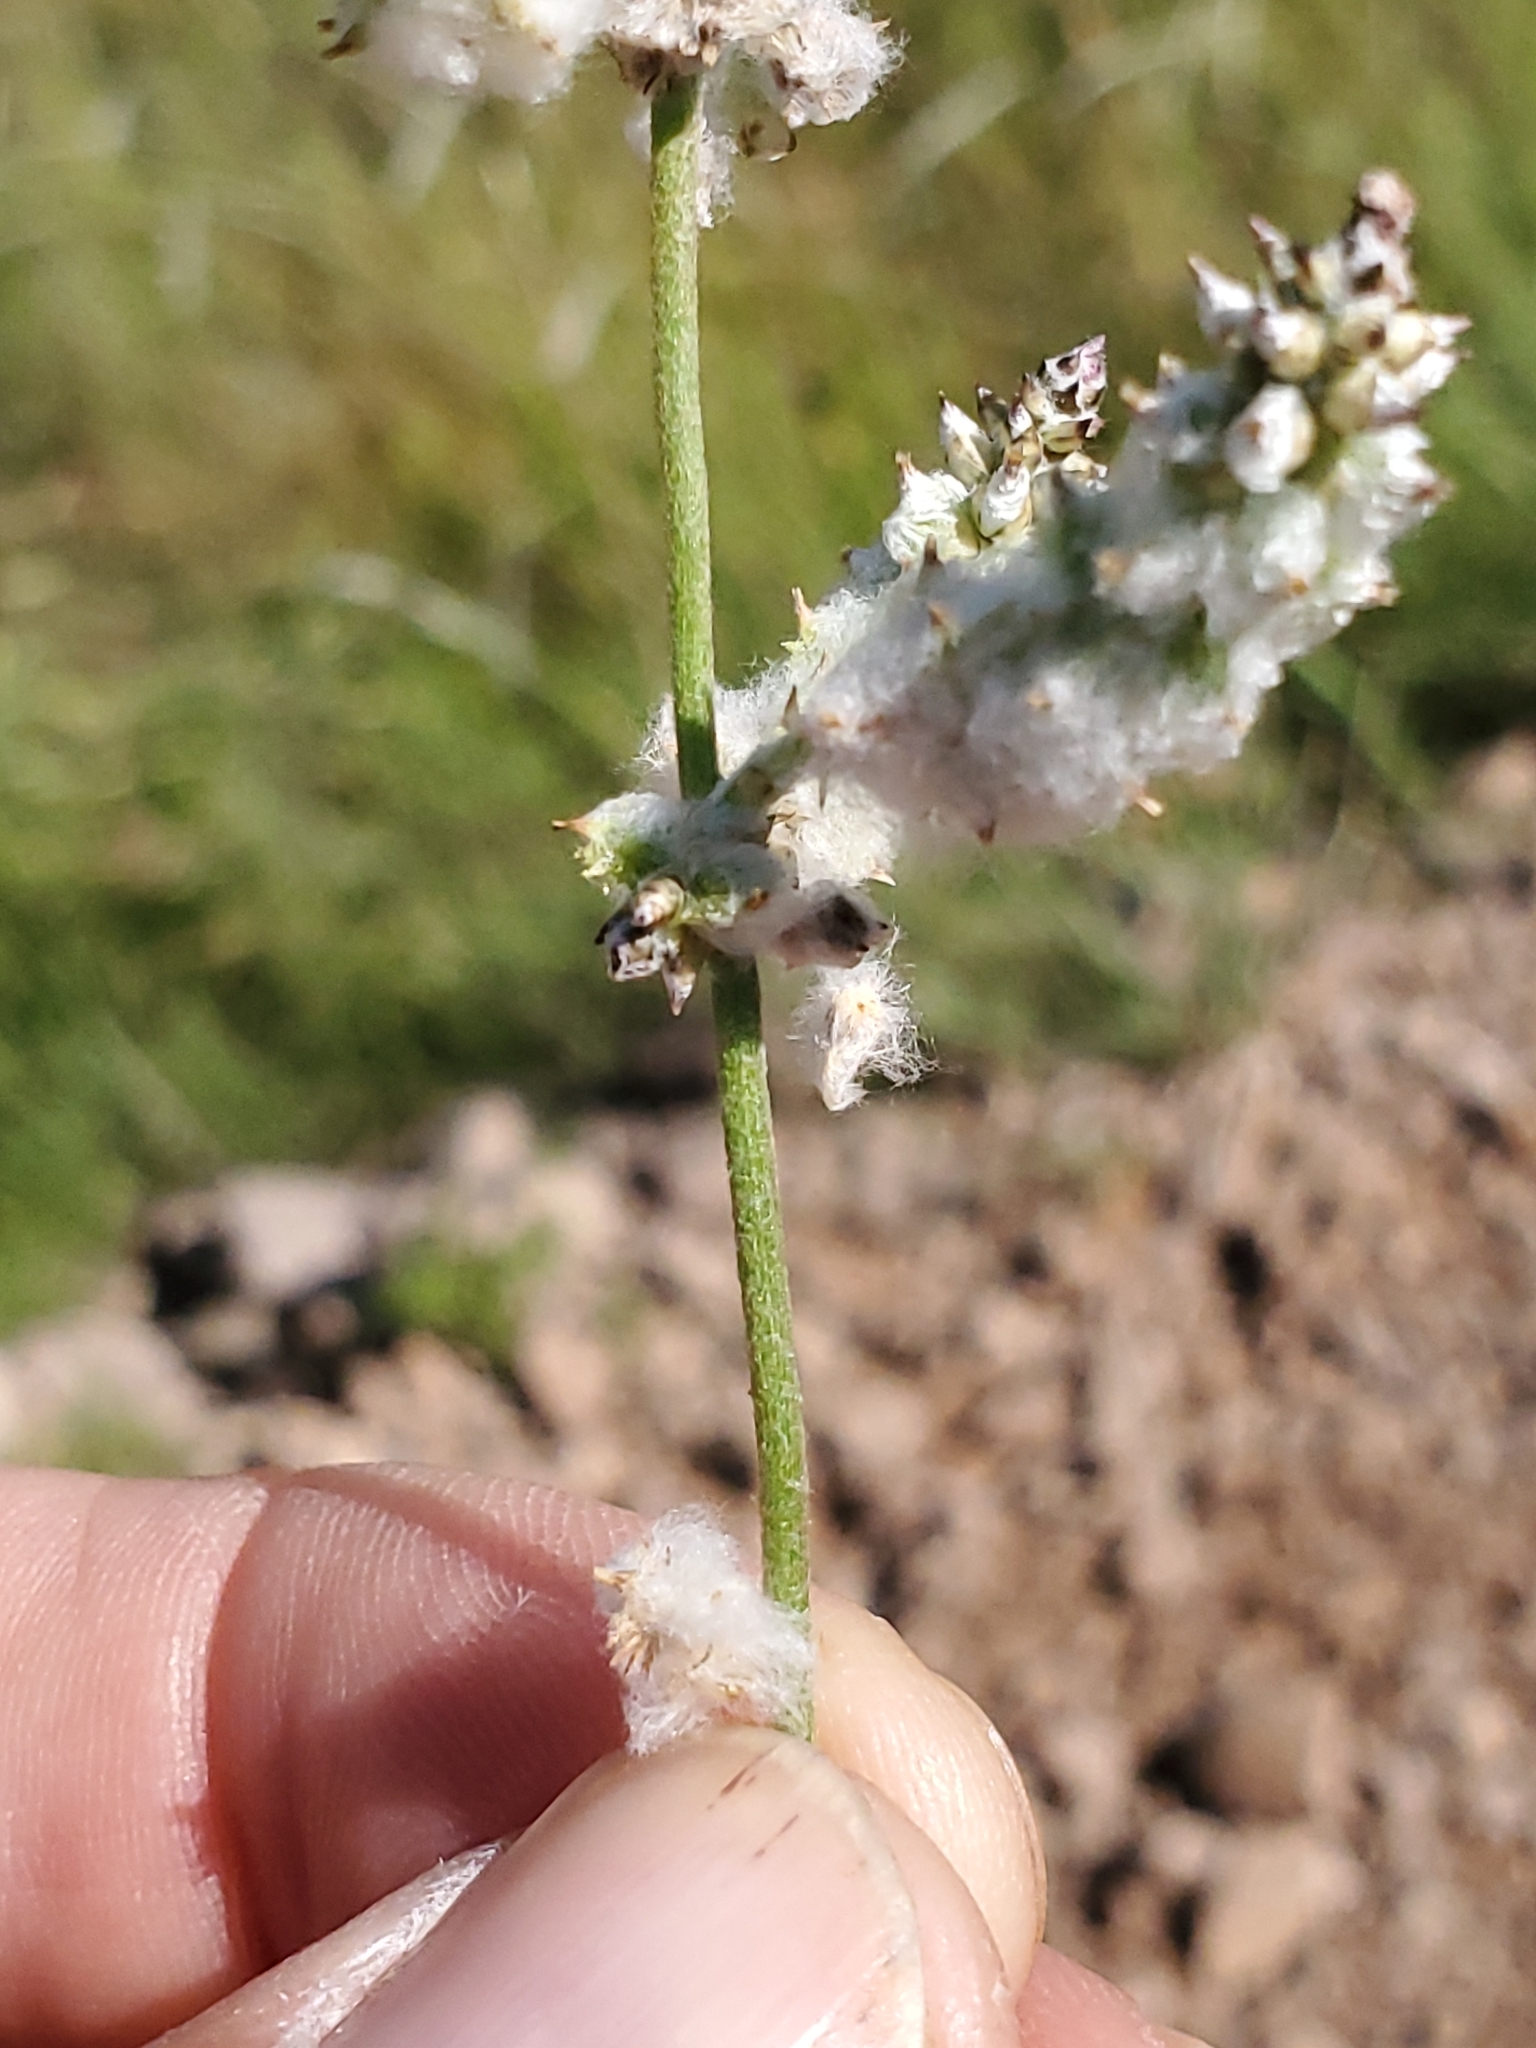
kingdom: Plantae
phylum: Tracheophyta
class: Magnoliopsida
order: Caryophyllales
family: Amaranthaceae
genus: Froelichia
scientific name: Froelichia gracilis
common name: Slender cottonweed
